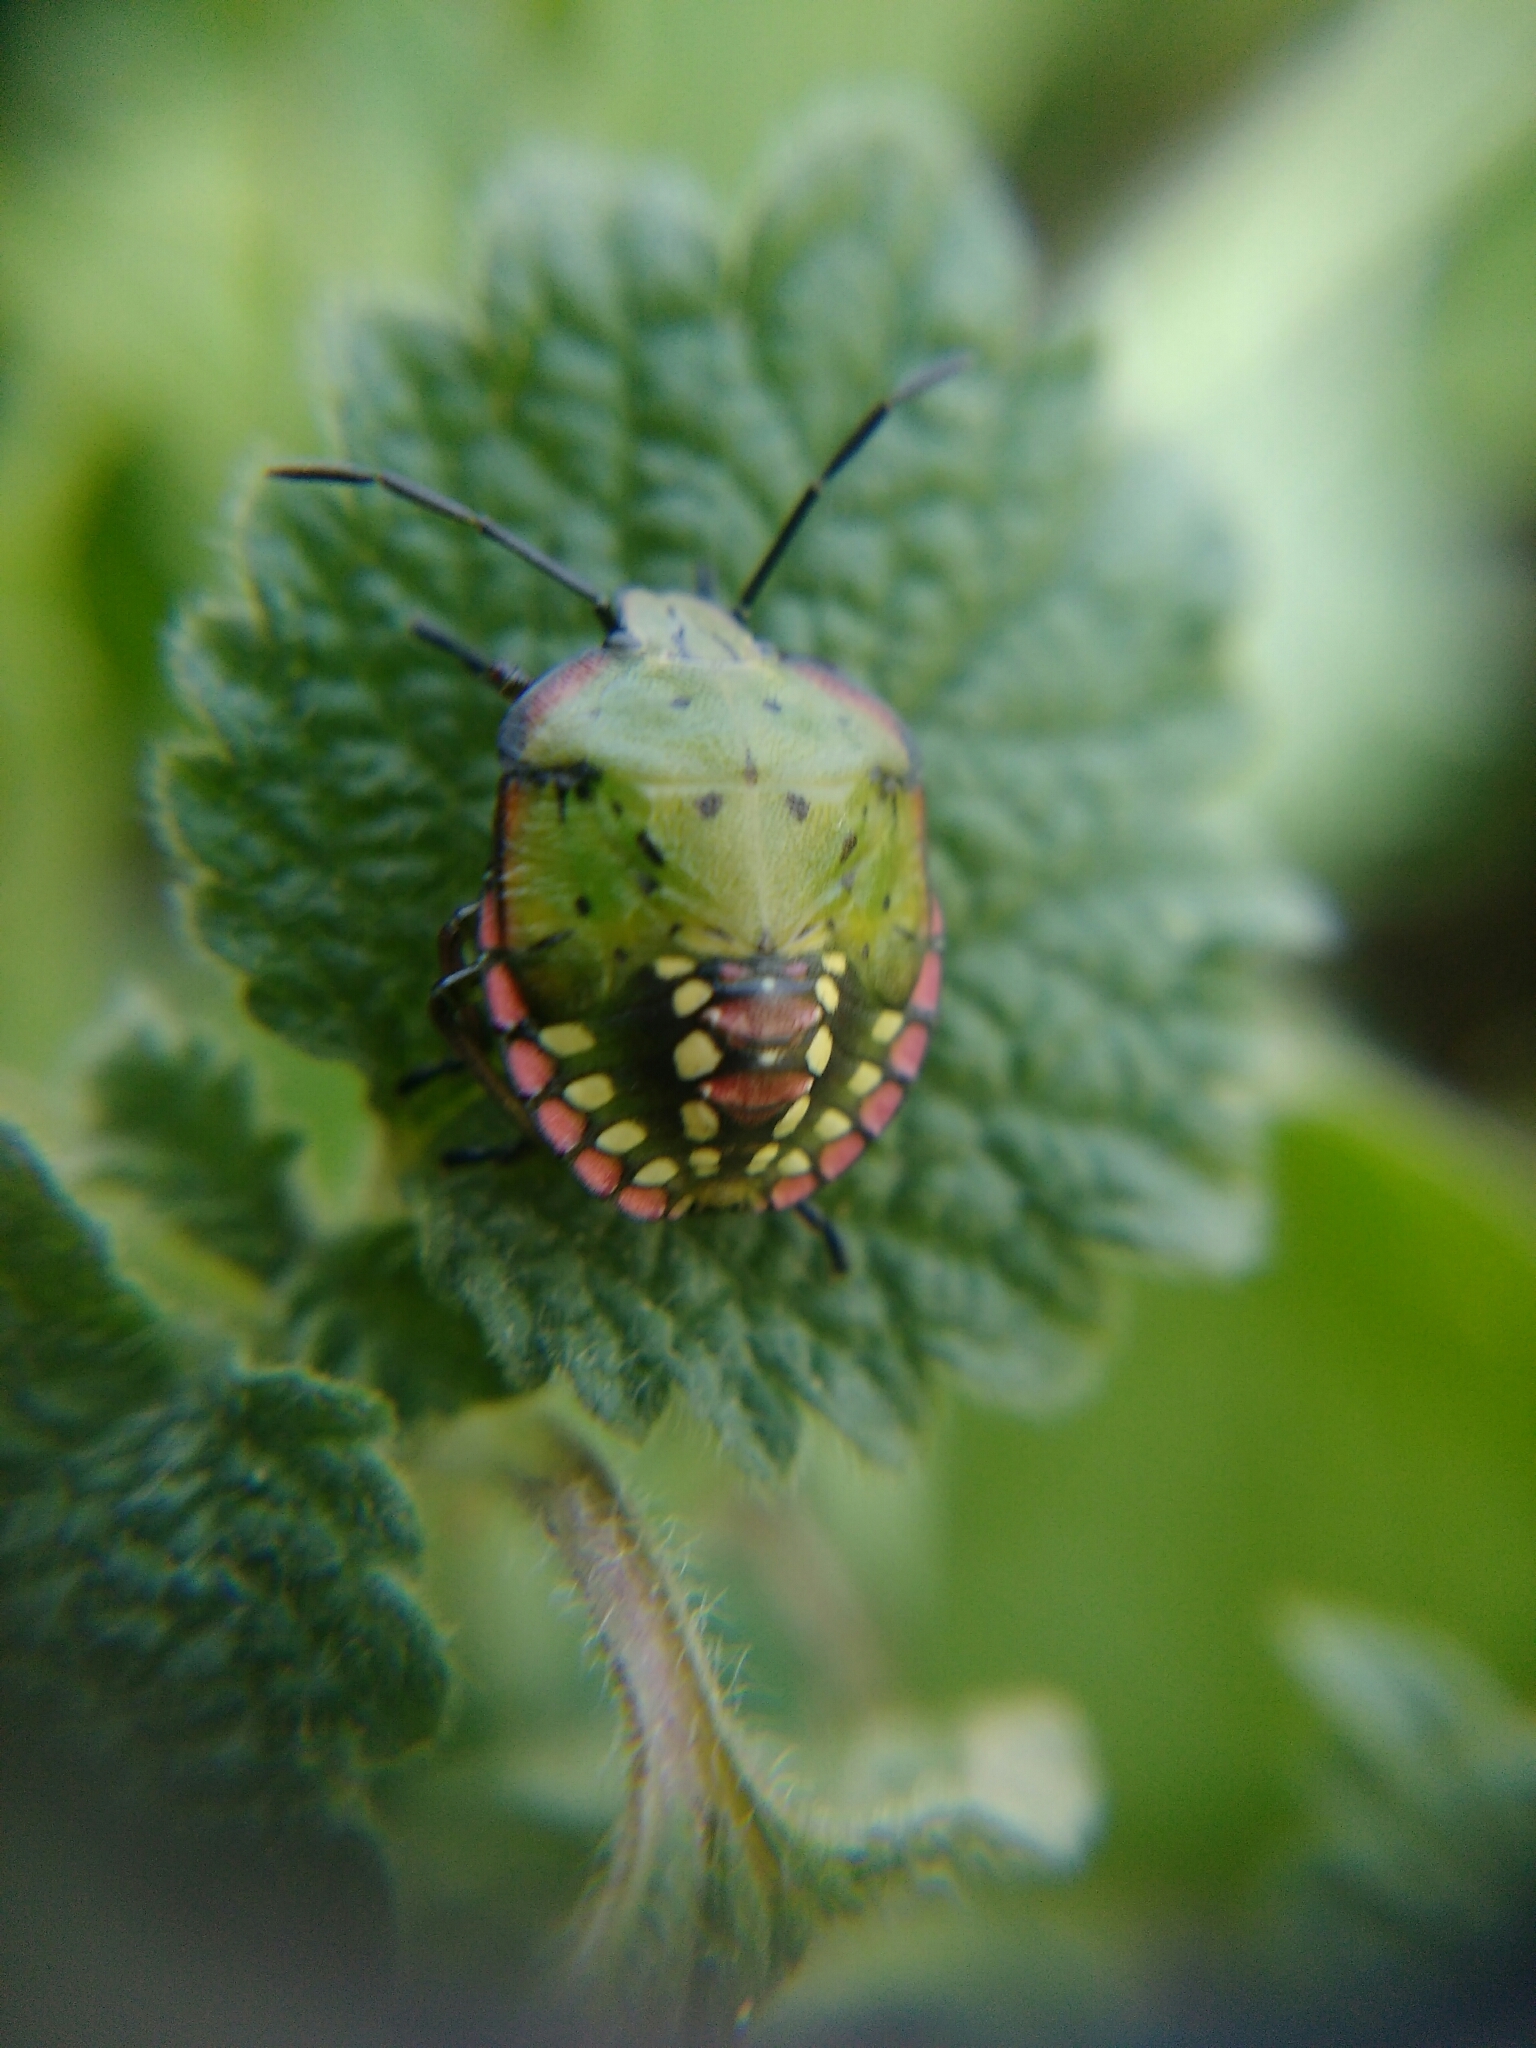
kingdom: Animalia
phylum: Arthropoda
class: Insecta
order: Hemiptera
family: Pentatomidae
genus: Nezara
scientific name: Nezara viridula
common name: Southern green stink bug
